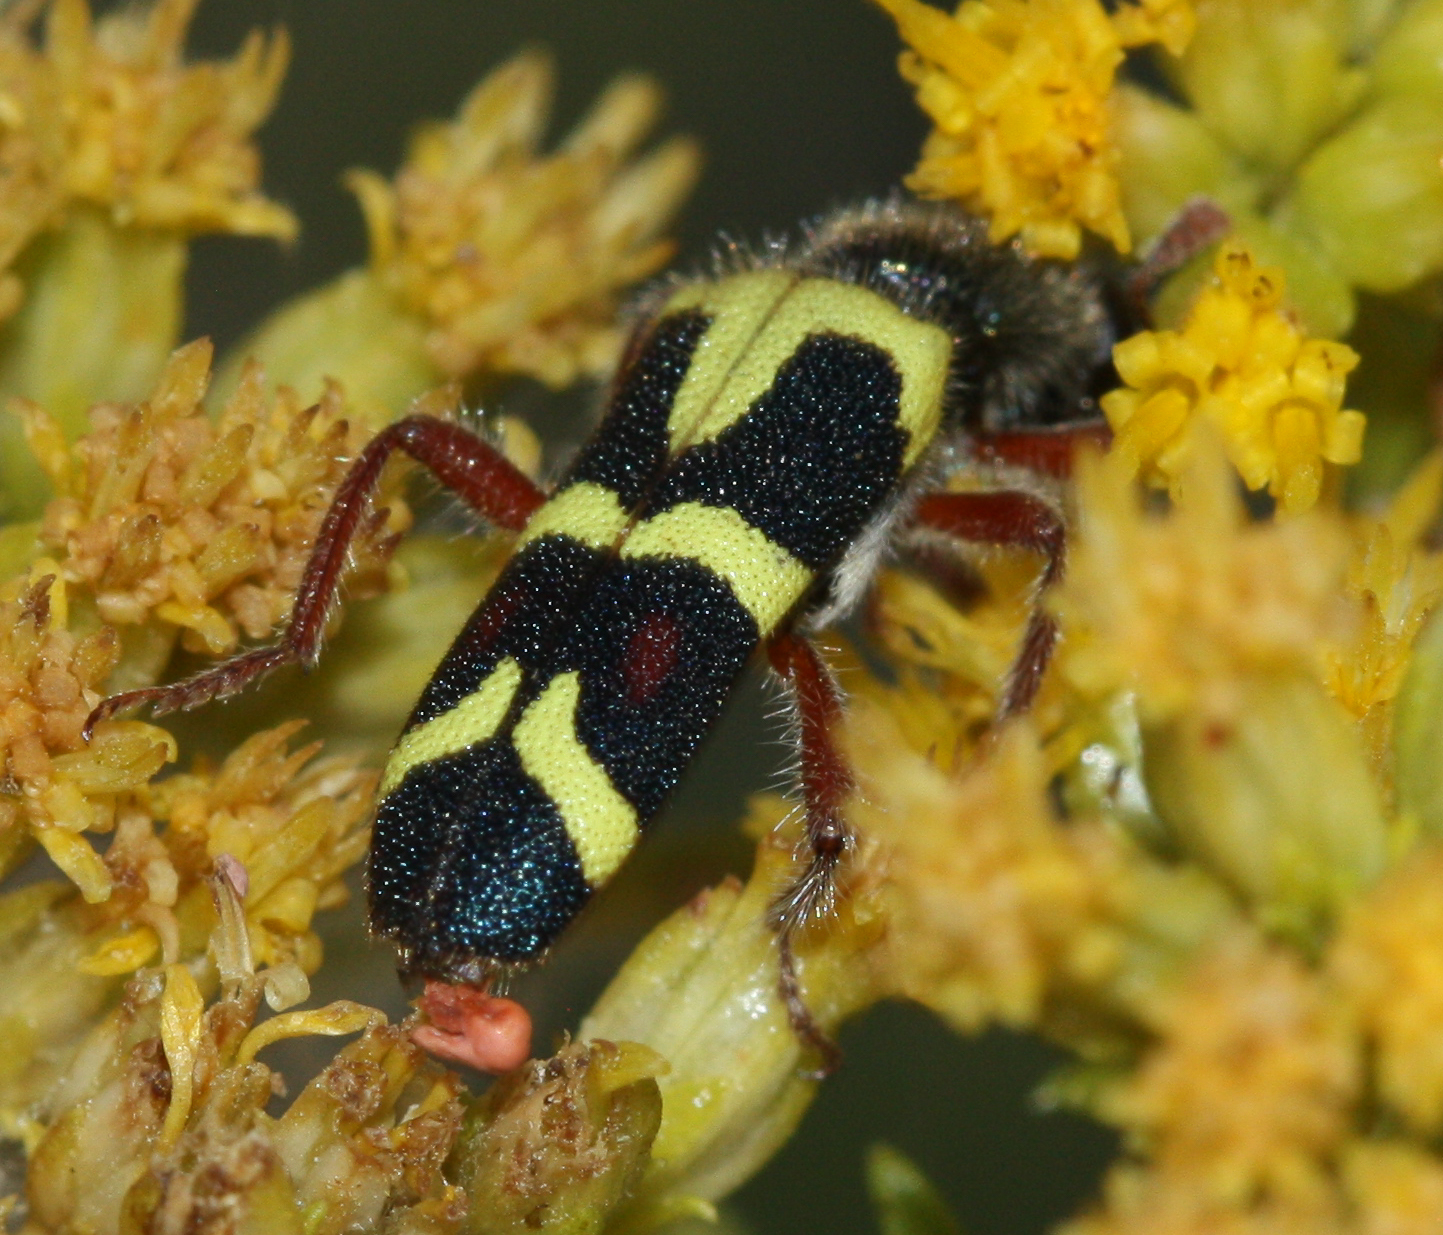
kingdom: Animalia
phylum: Arthropoda
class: Insecta
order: Coleoptera
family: Cleridae
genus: Trichodes
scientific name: Trichodes peninsularis
